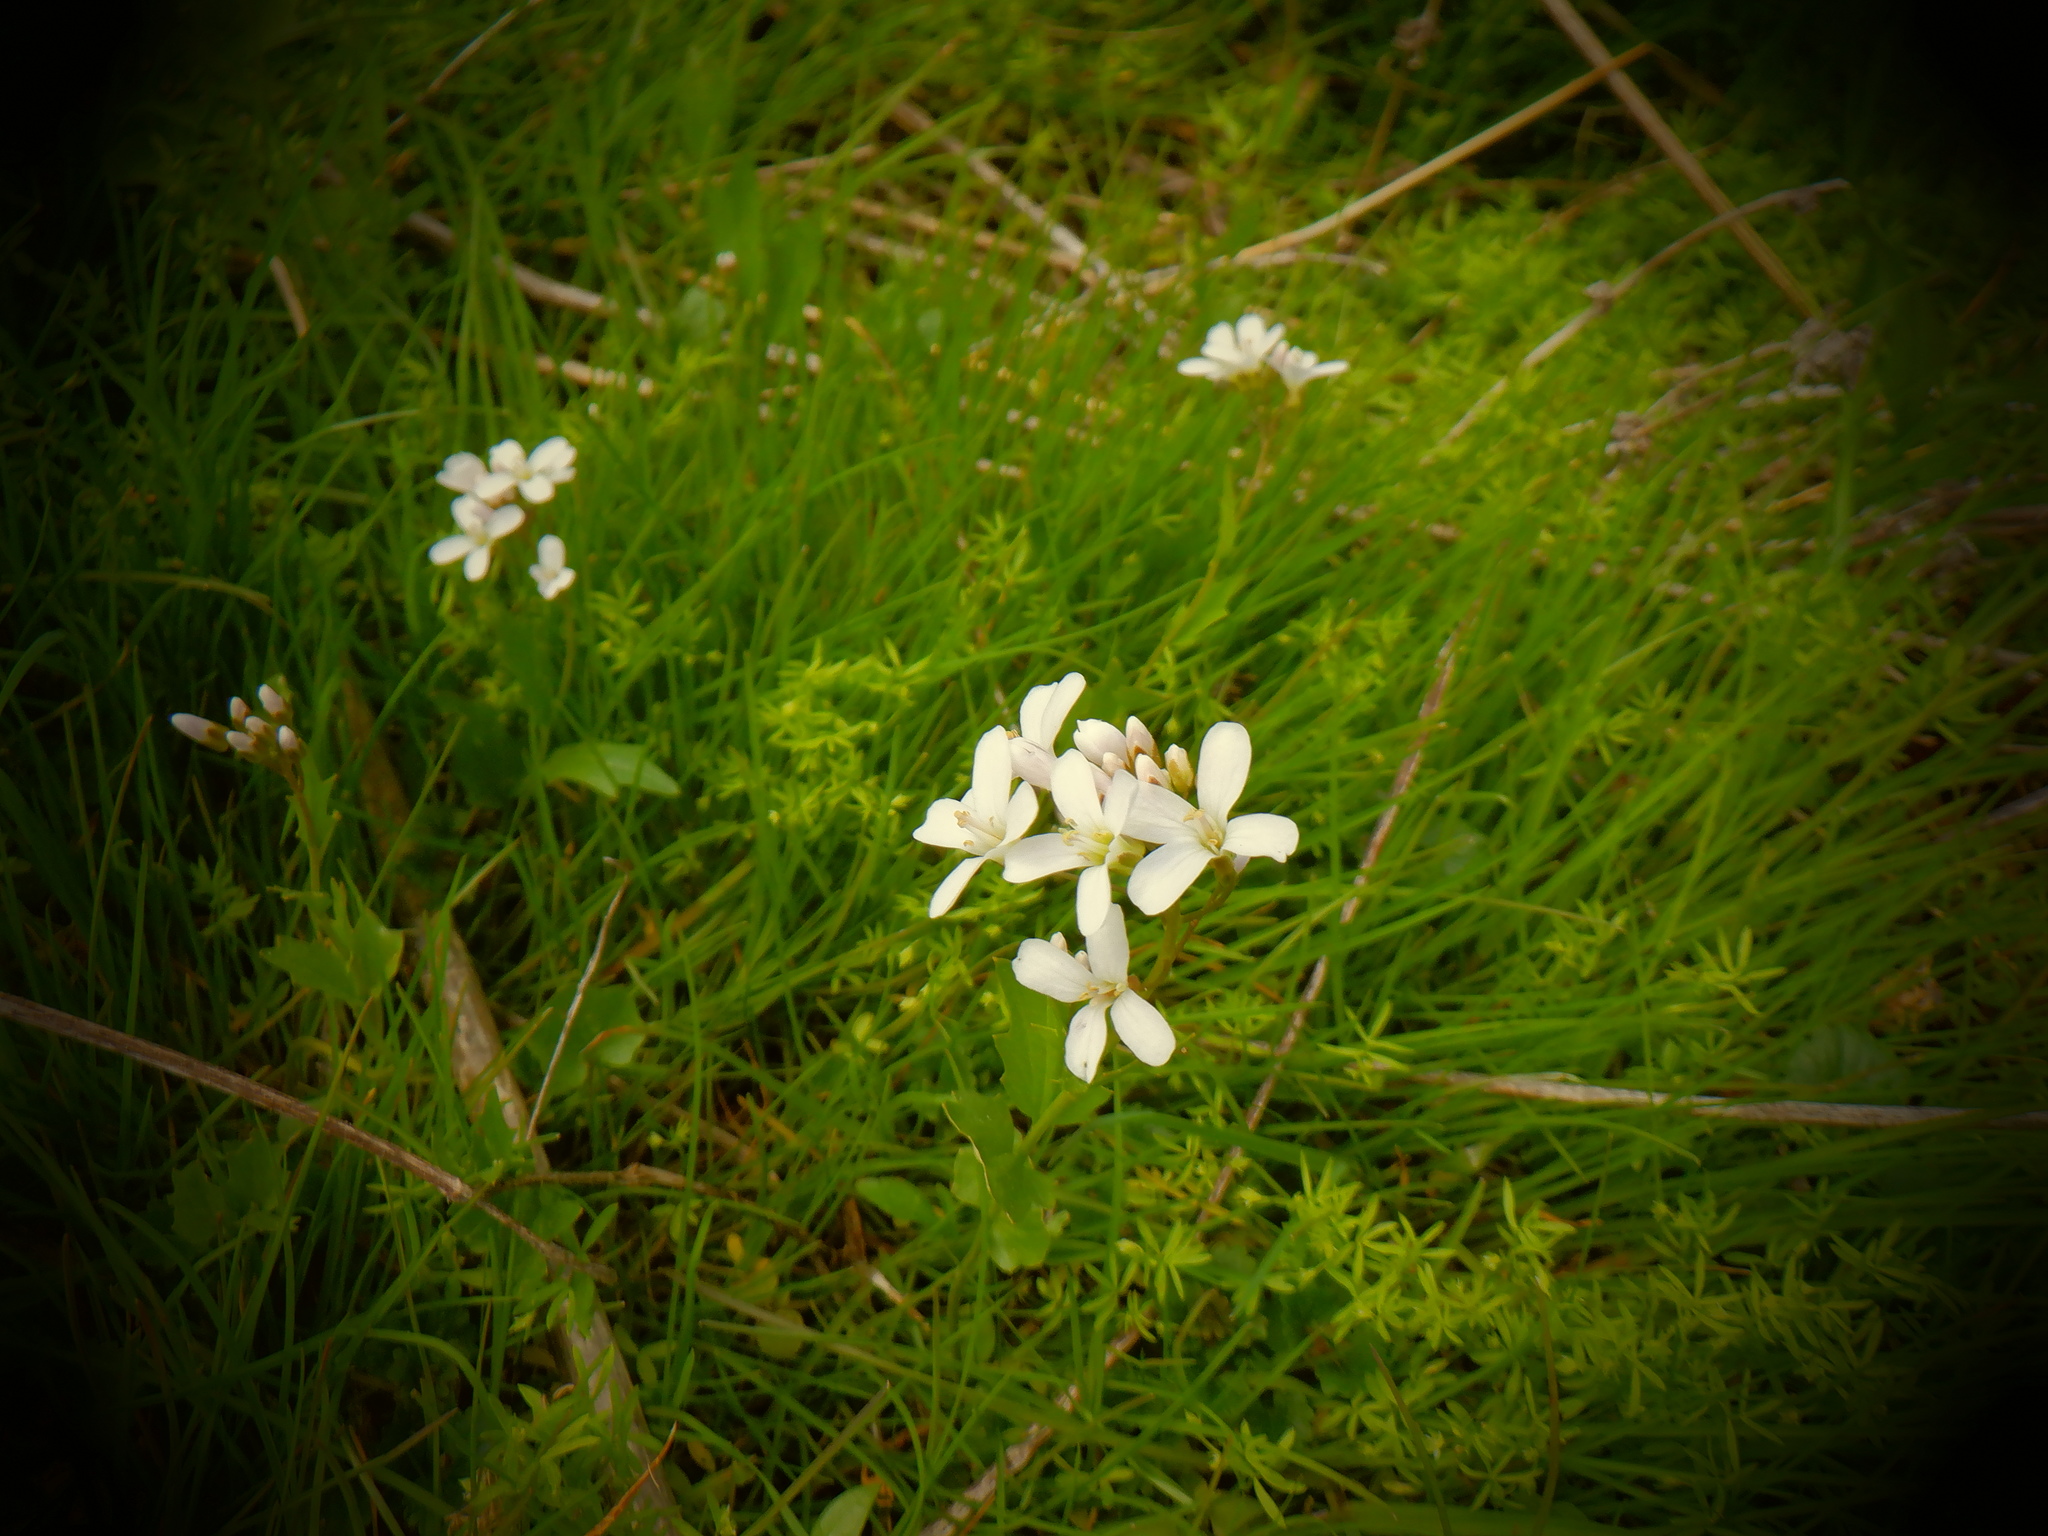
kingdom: Plantae
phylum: Tracheophyta
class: Magnoliopsida
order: Brassicales
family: Brassicaceae
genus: Cardamine
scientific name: Cardamine bulbosa
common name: Spring cress
